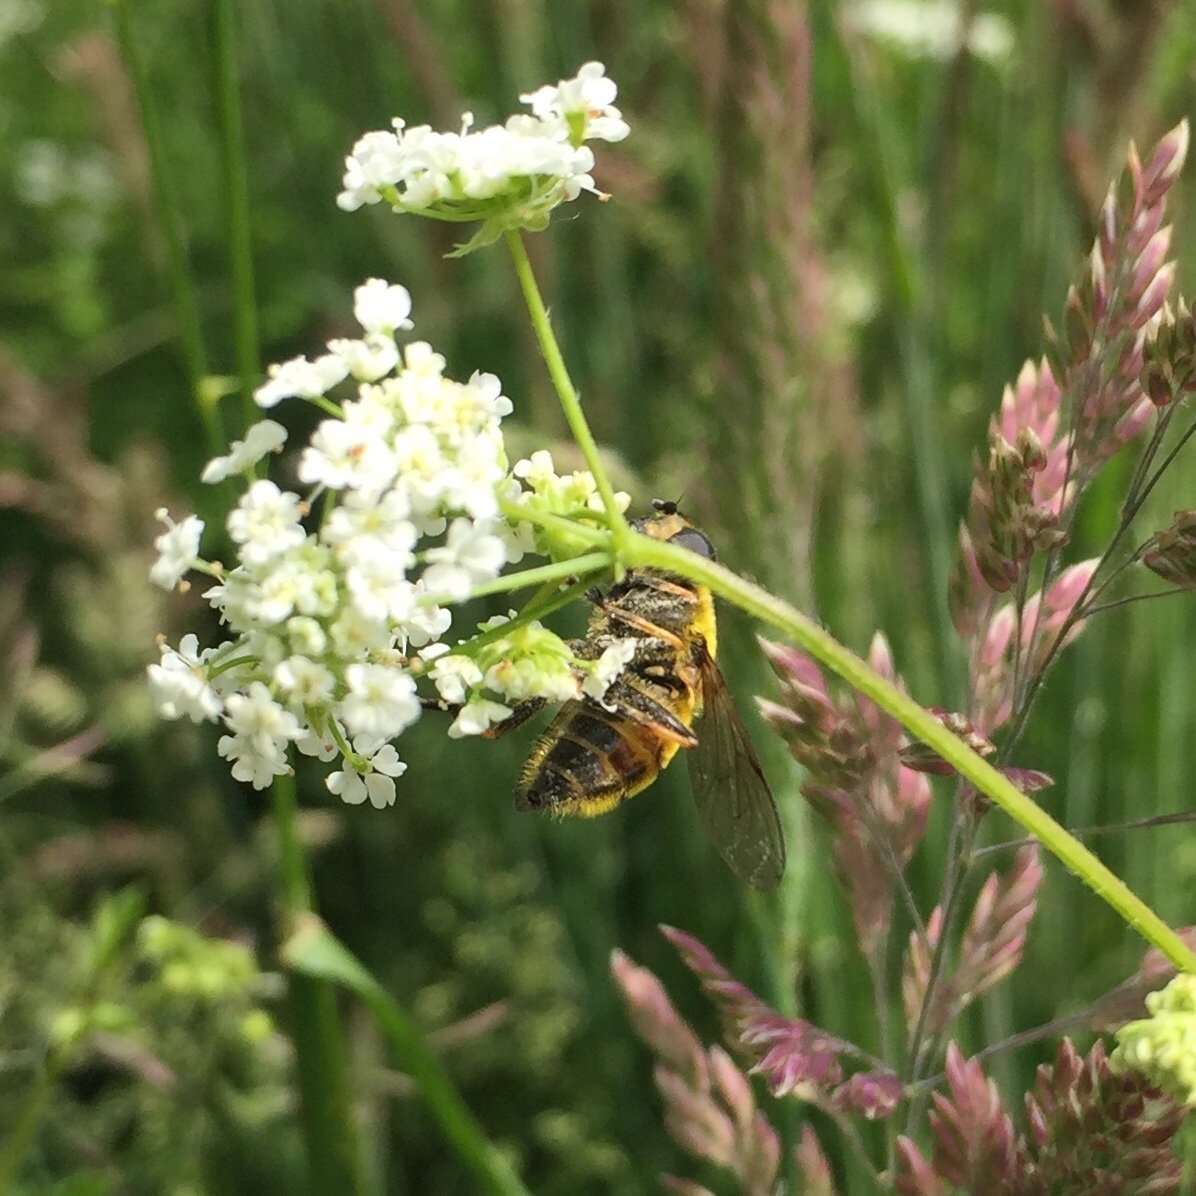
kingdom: Animalia
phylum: Arthropoda
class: Insecta
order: Diptera
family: Syrphidae
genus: Myathropa
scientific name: Myathropa florea
